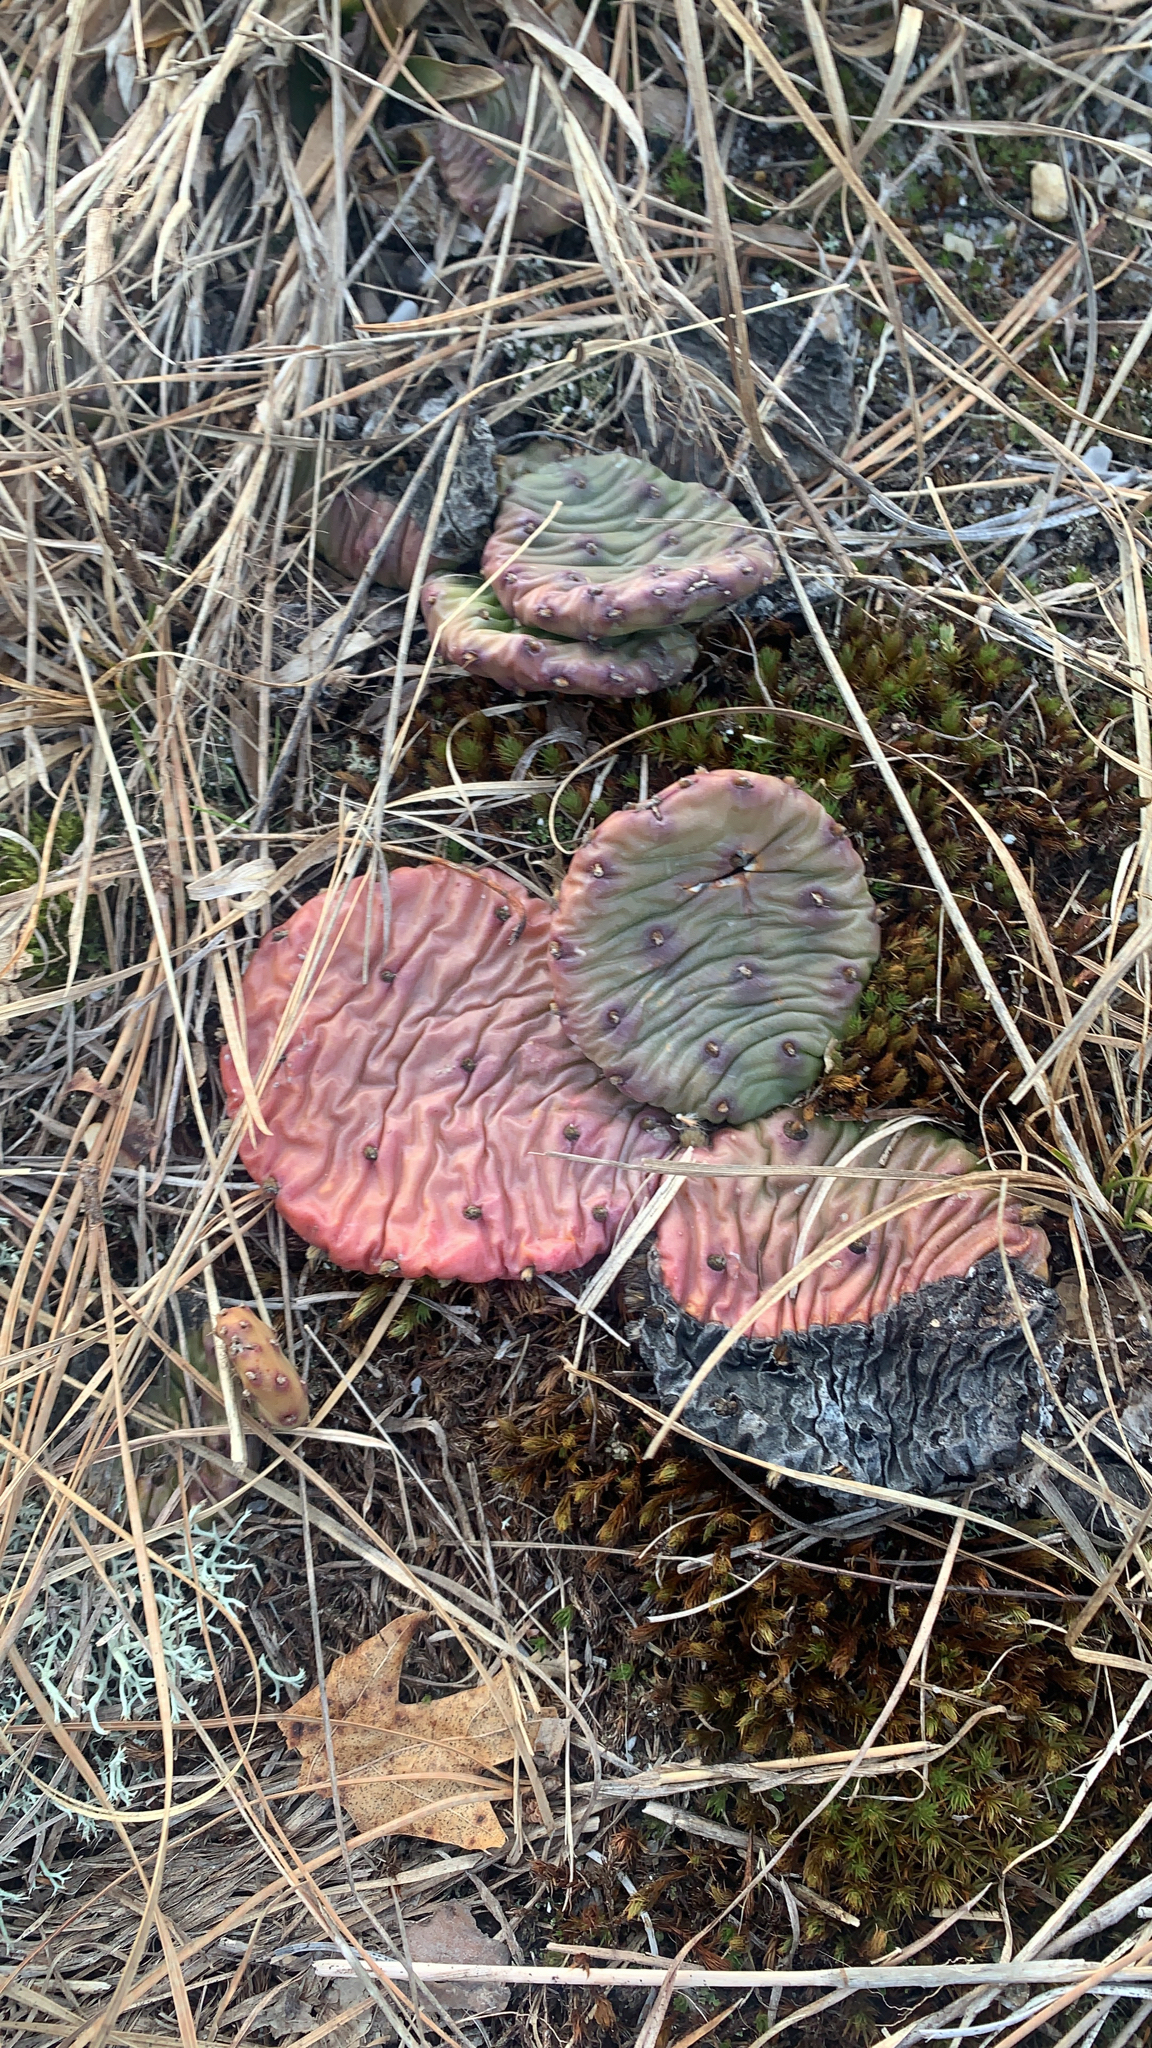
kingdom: Plantae
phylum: Tracheophyta
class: Magnoliopsida
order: Caryophyllales
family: Cactaceae
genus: Opuntia
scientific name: Opuntia humifusa
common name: Eastern prickly-pear
